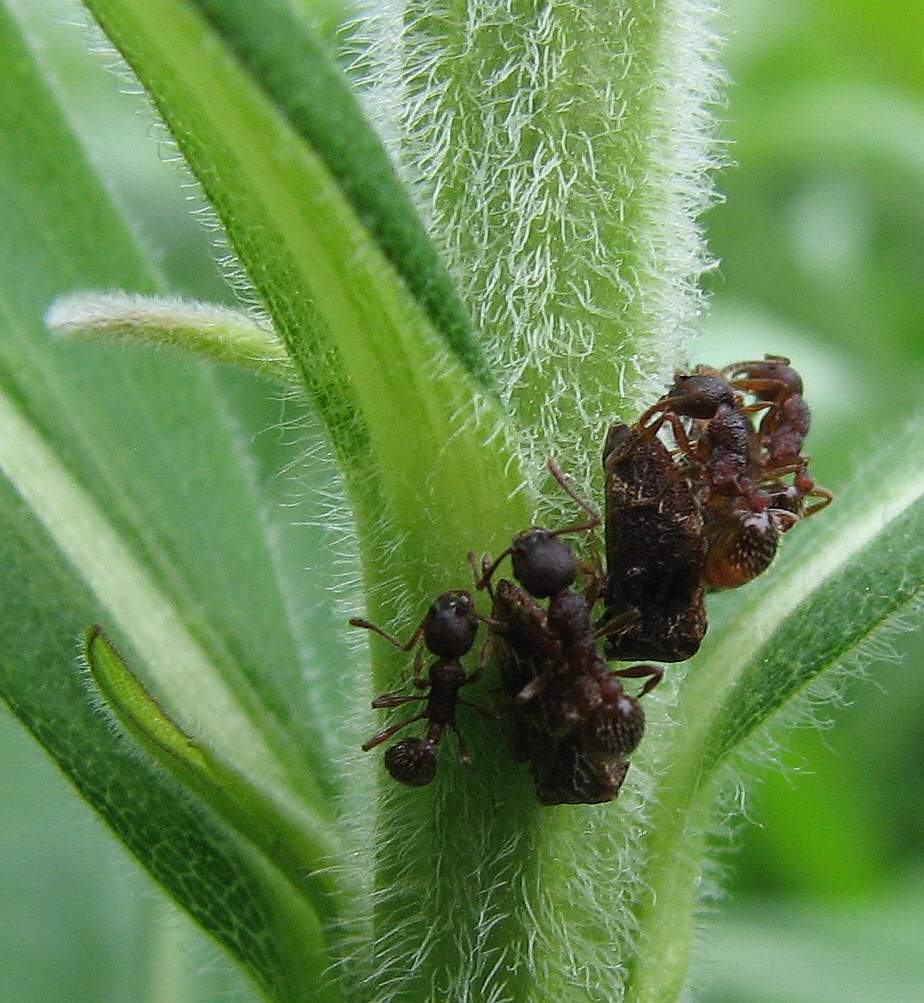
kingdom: Animalia
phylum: Arthropoda
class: Insecta
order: Hemiptera
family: Membracidae
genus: Publilia
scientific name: Publilia concava
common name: Aster treehopper
